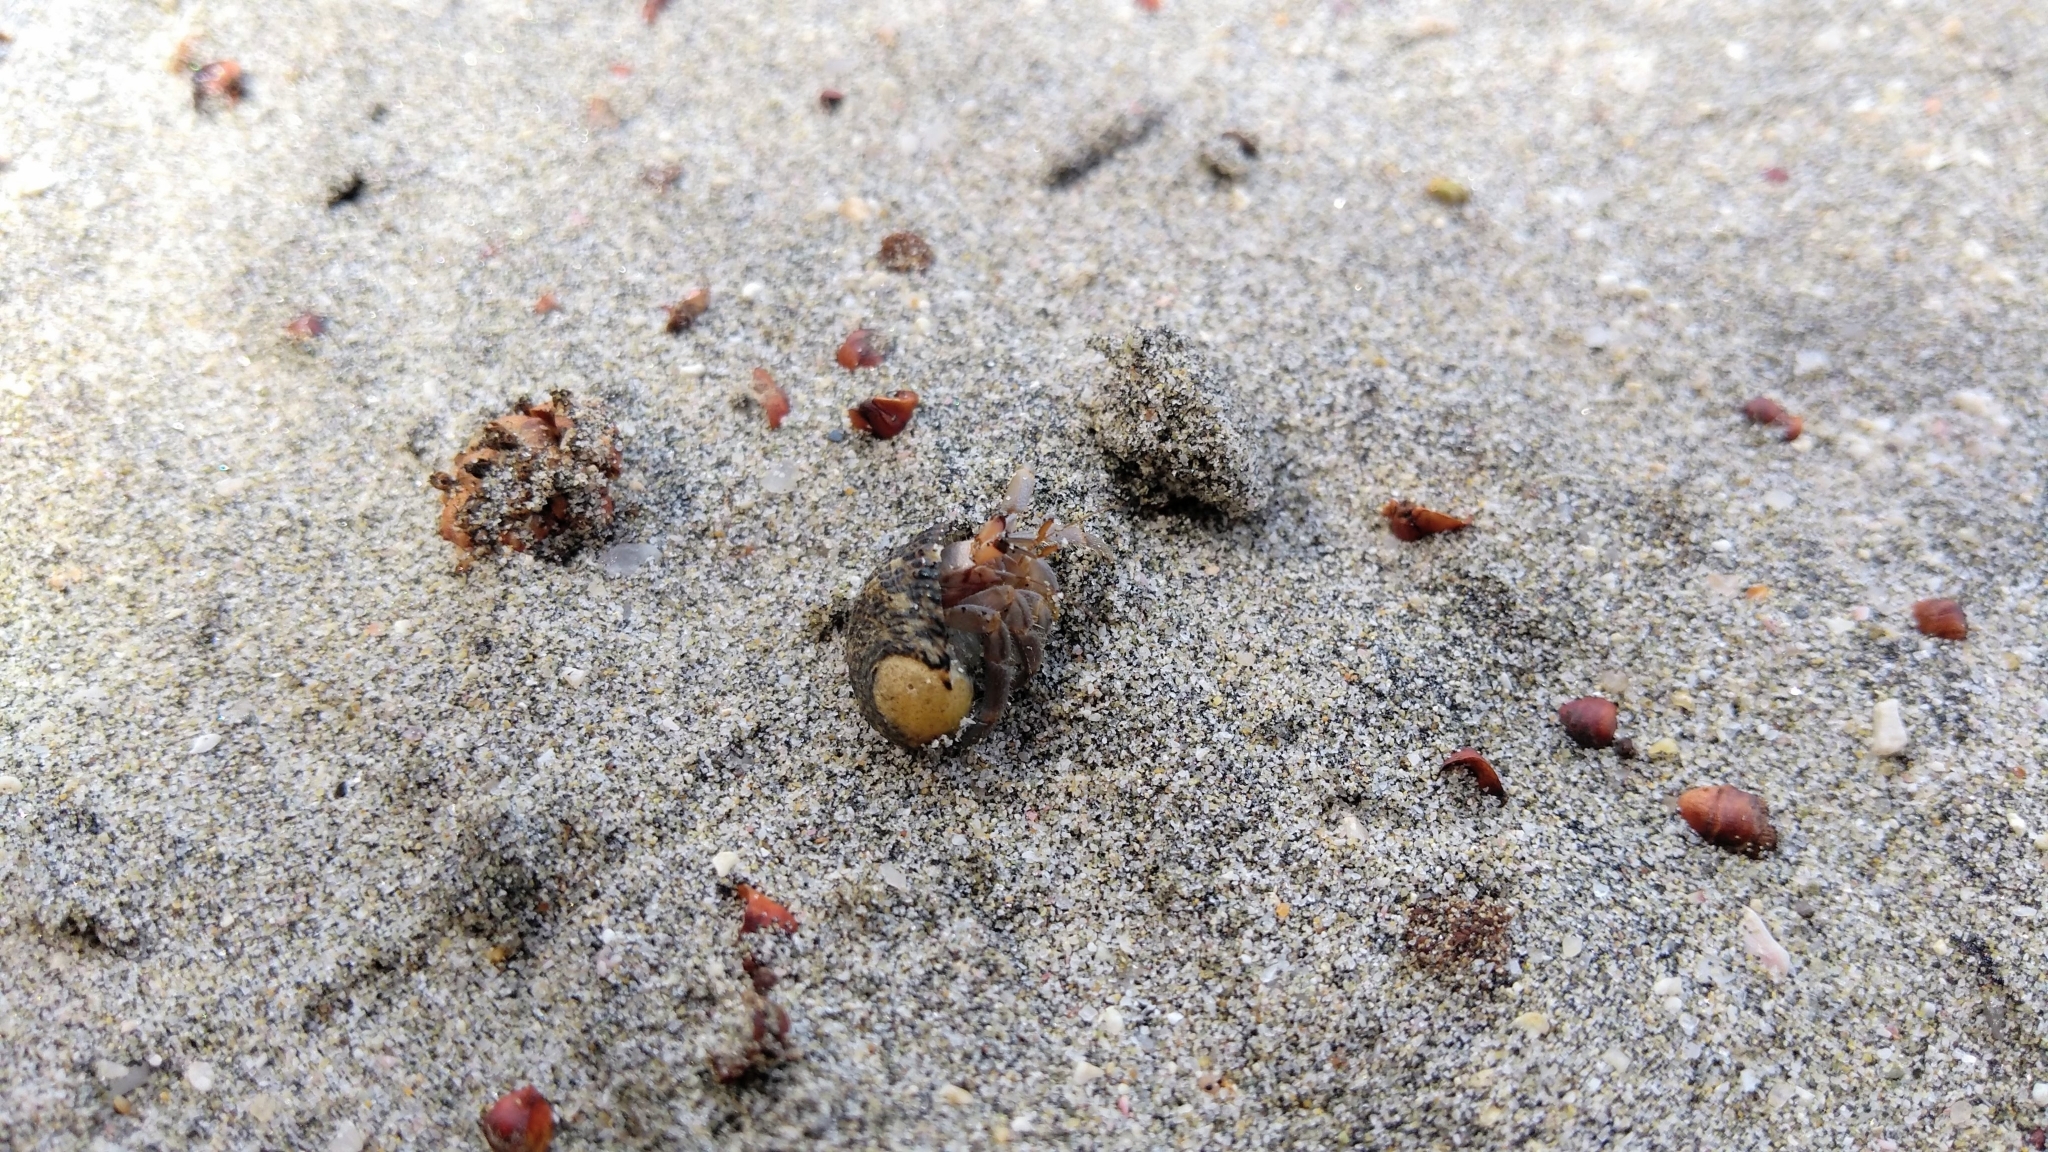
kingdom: Animalia
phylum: Arthropoda
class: Malacostraca
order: Decapoda
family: Coenobitidae
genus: Coenobita
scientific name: Coenobita compressus
